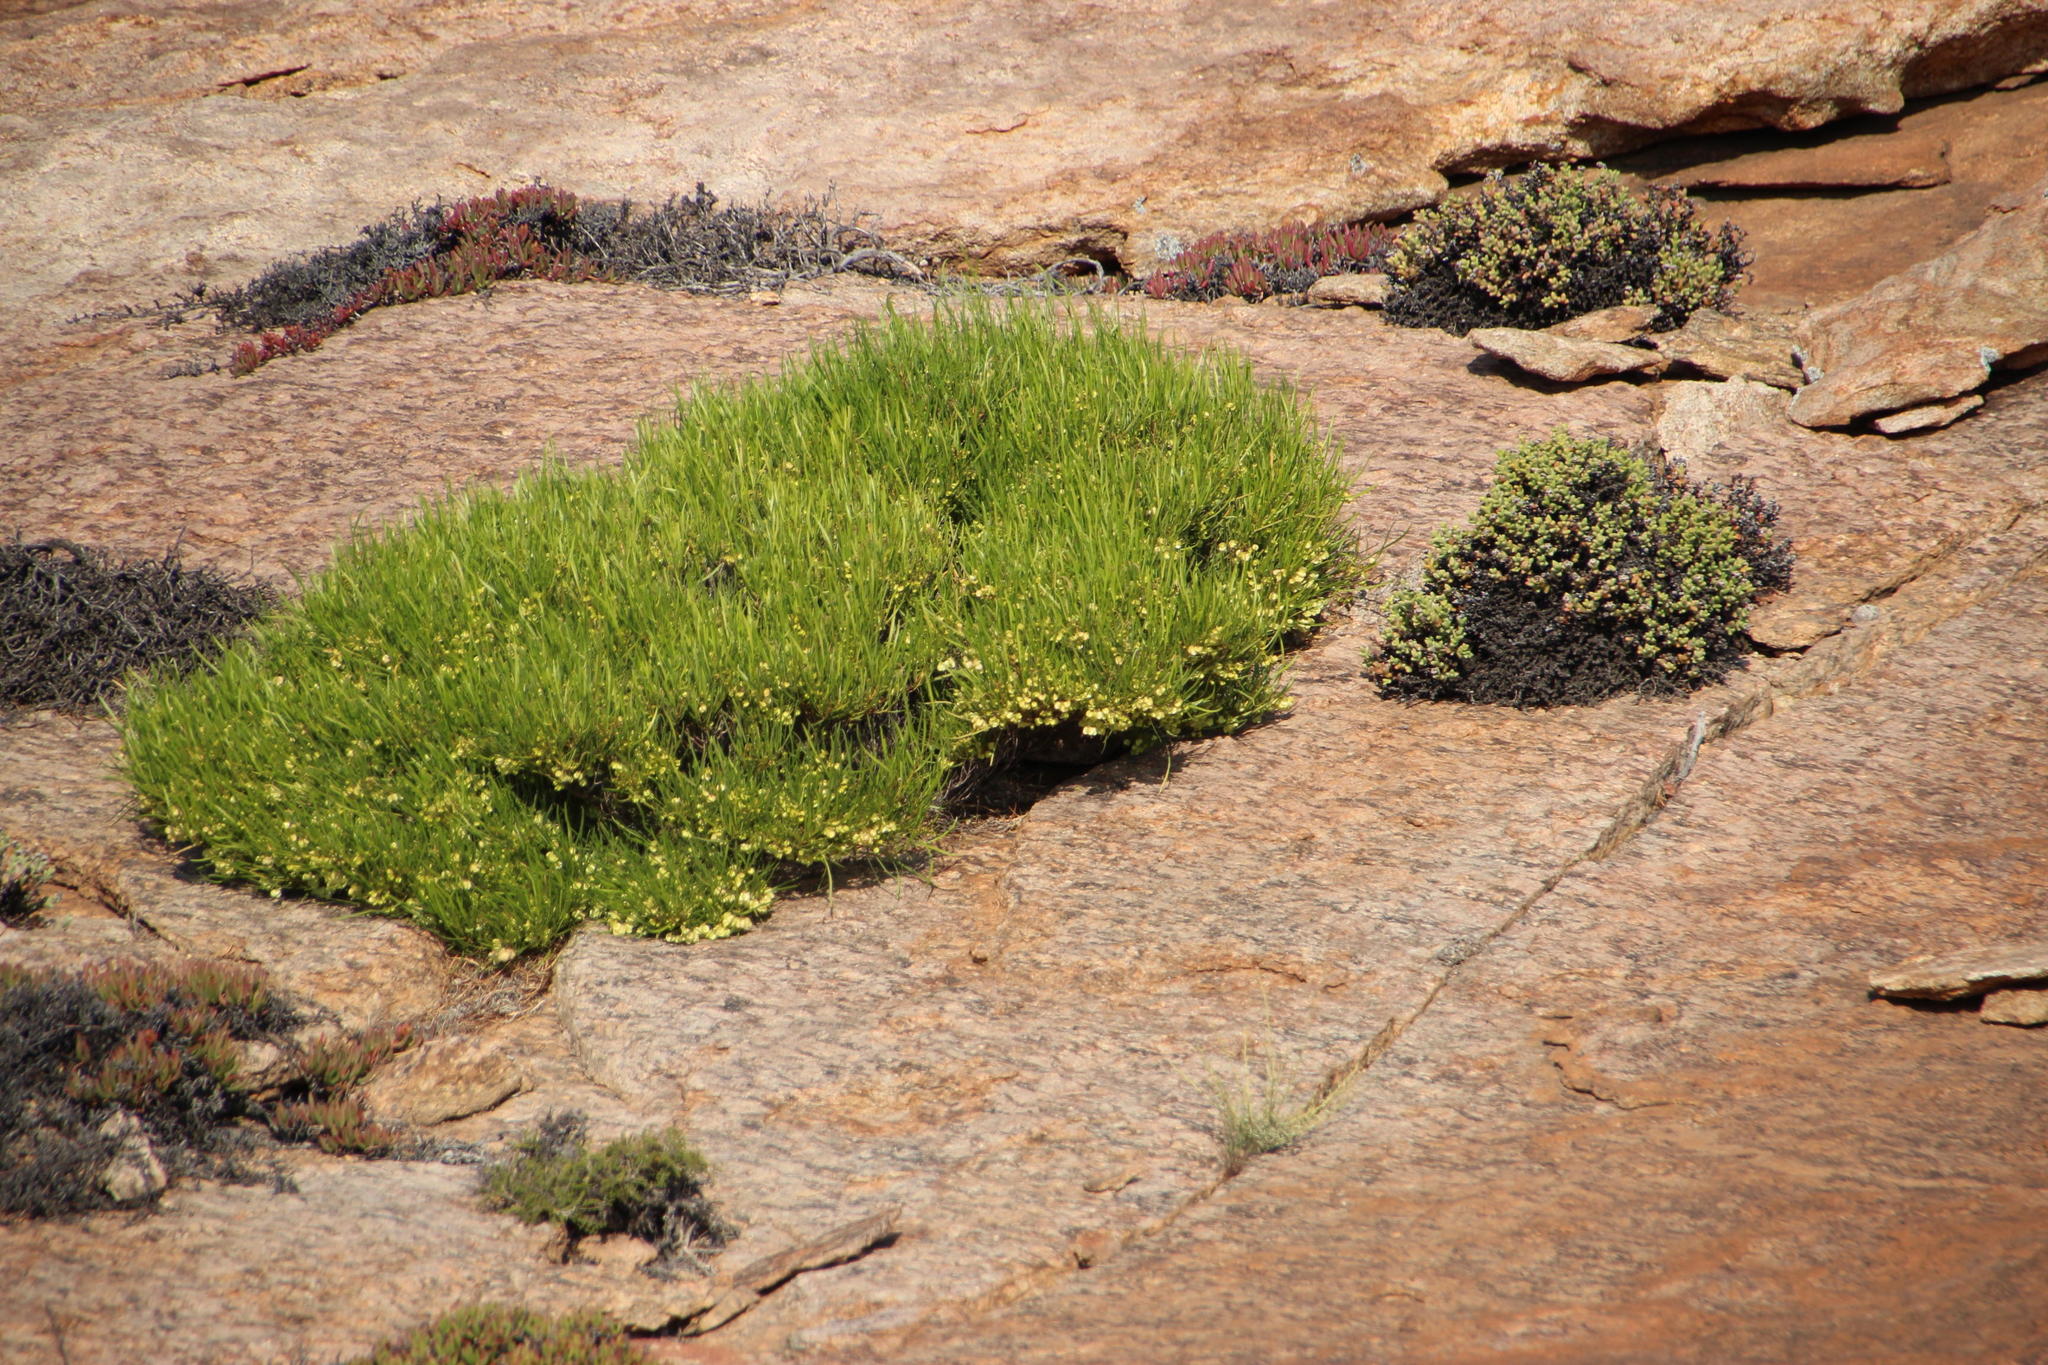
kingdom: Plantae
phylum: Tracheophyta
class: Magnoliopsida
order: Sapindales
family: Sapindaceae
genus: Dodonaea
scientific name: Dodonaea viscosa
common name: Hopbush
